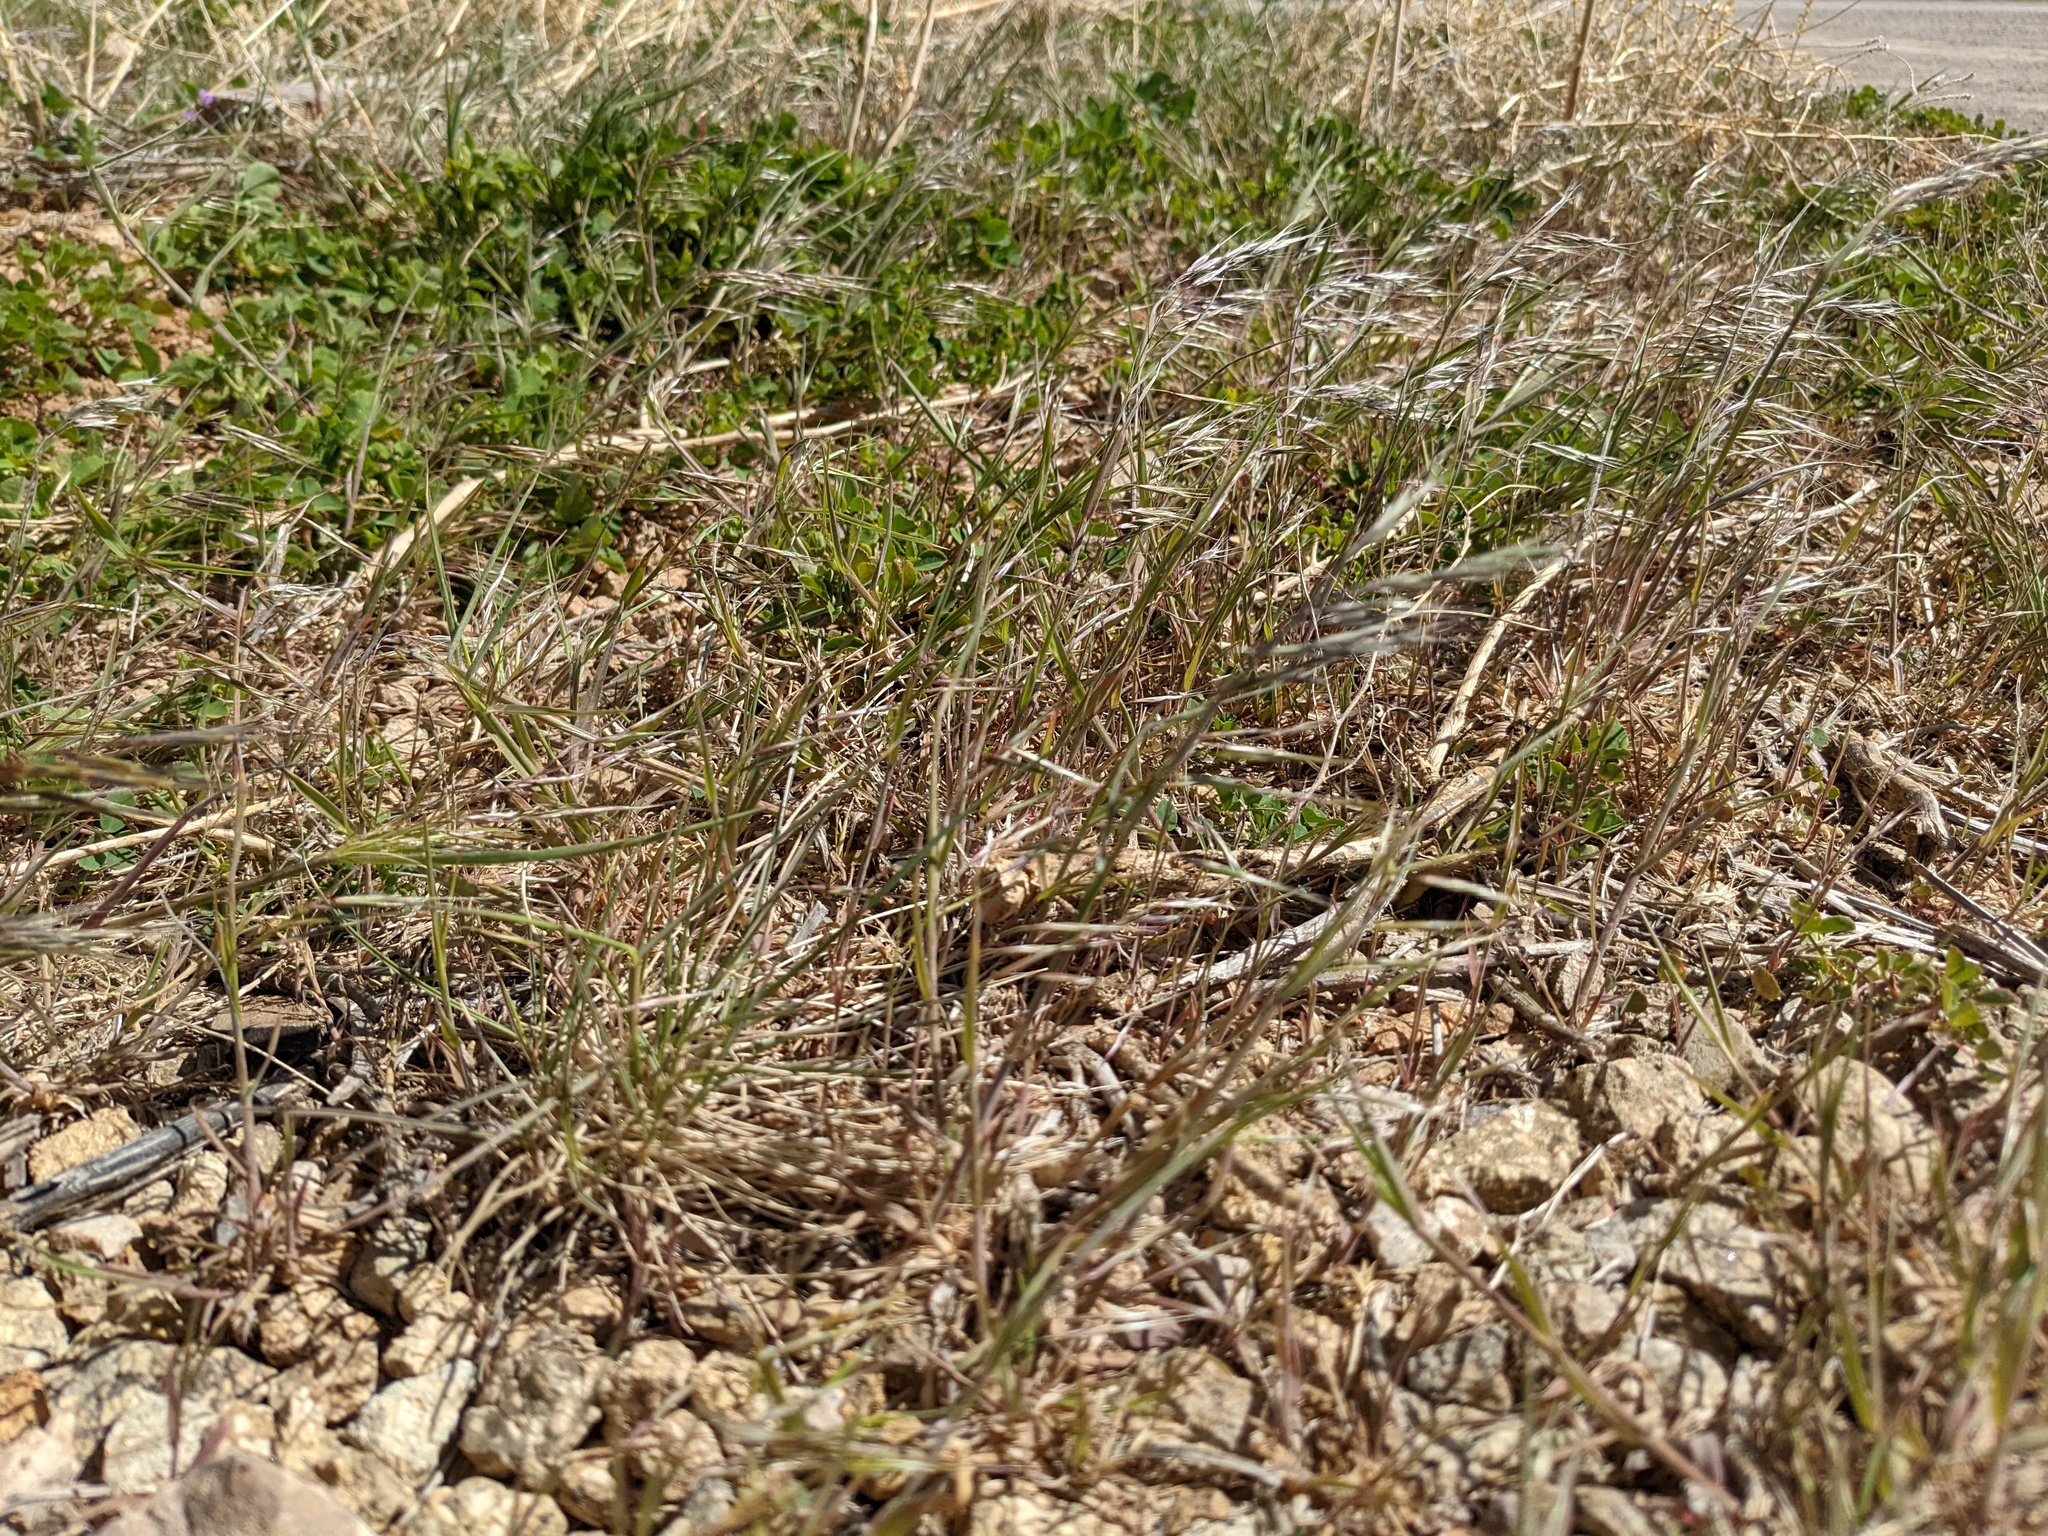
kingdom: Plantae
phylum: Tracheophyta
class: Liliopsida
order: Poales
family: Poaceae
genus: Bromus
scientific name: Bromus tectorum
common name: Cheatgrass
